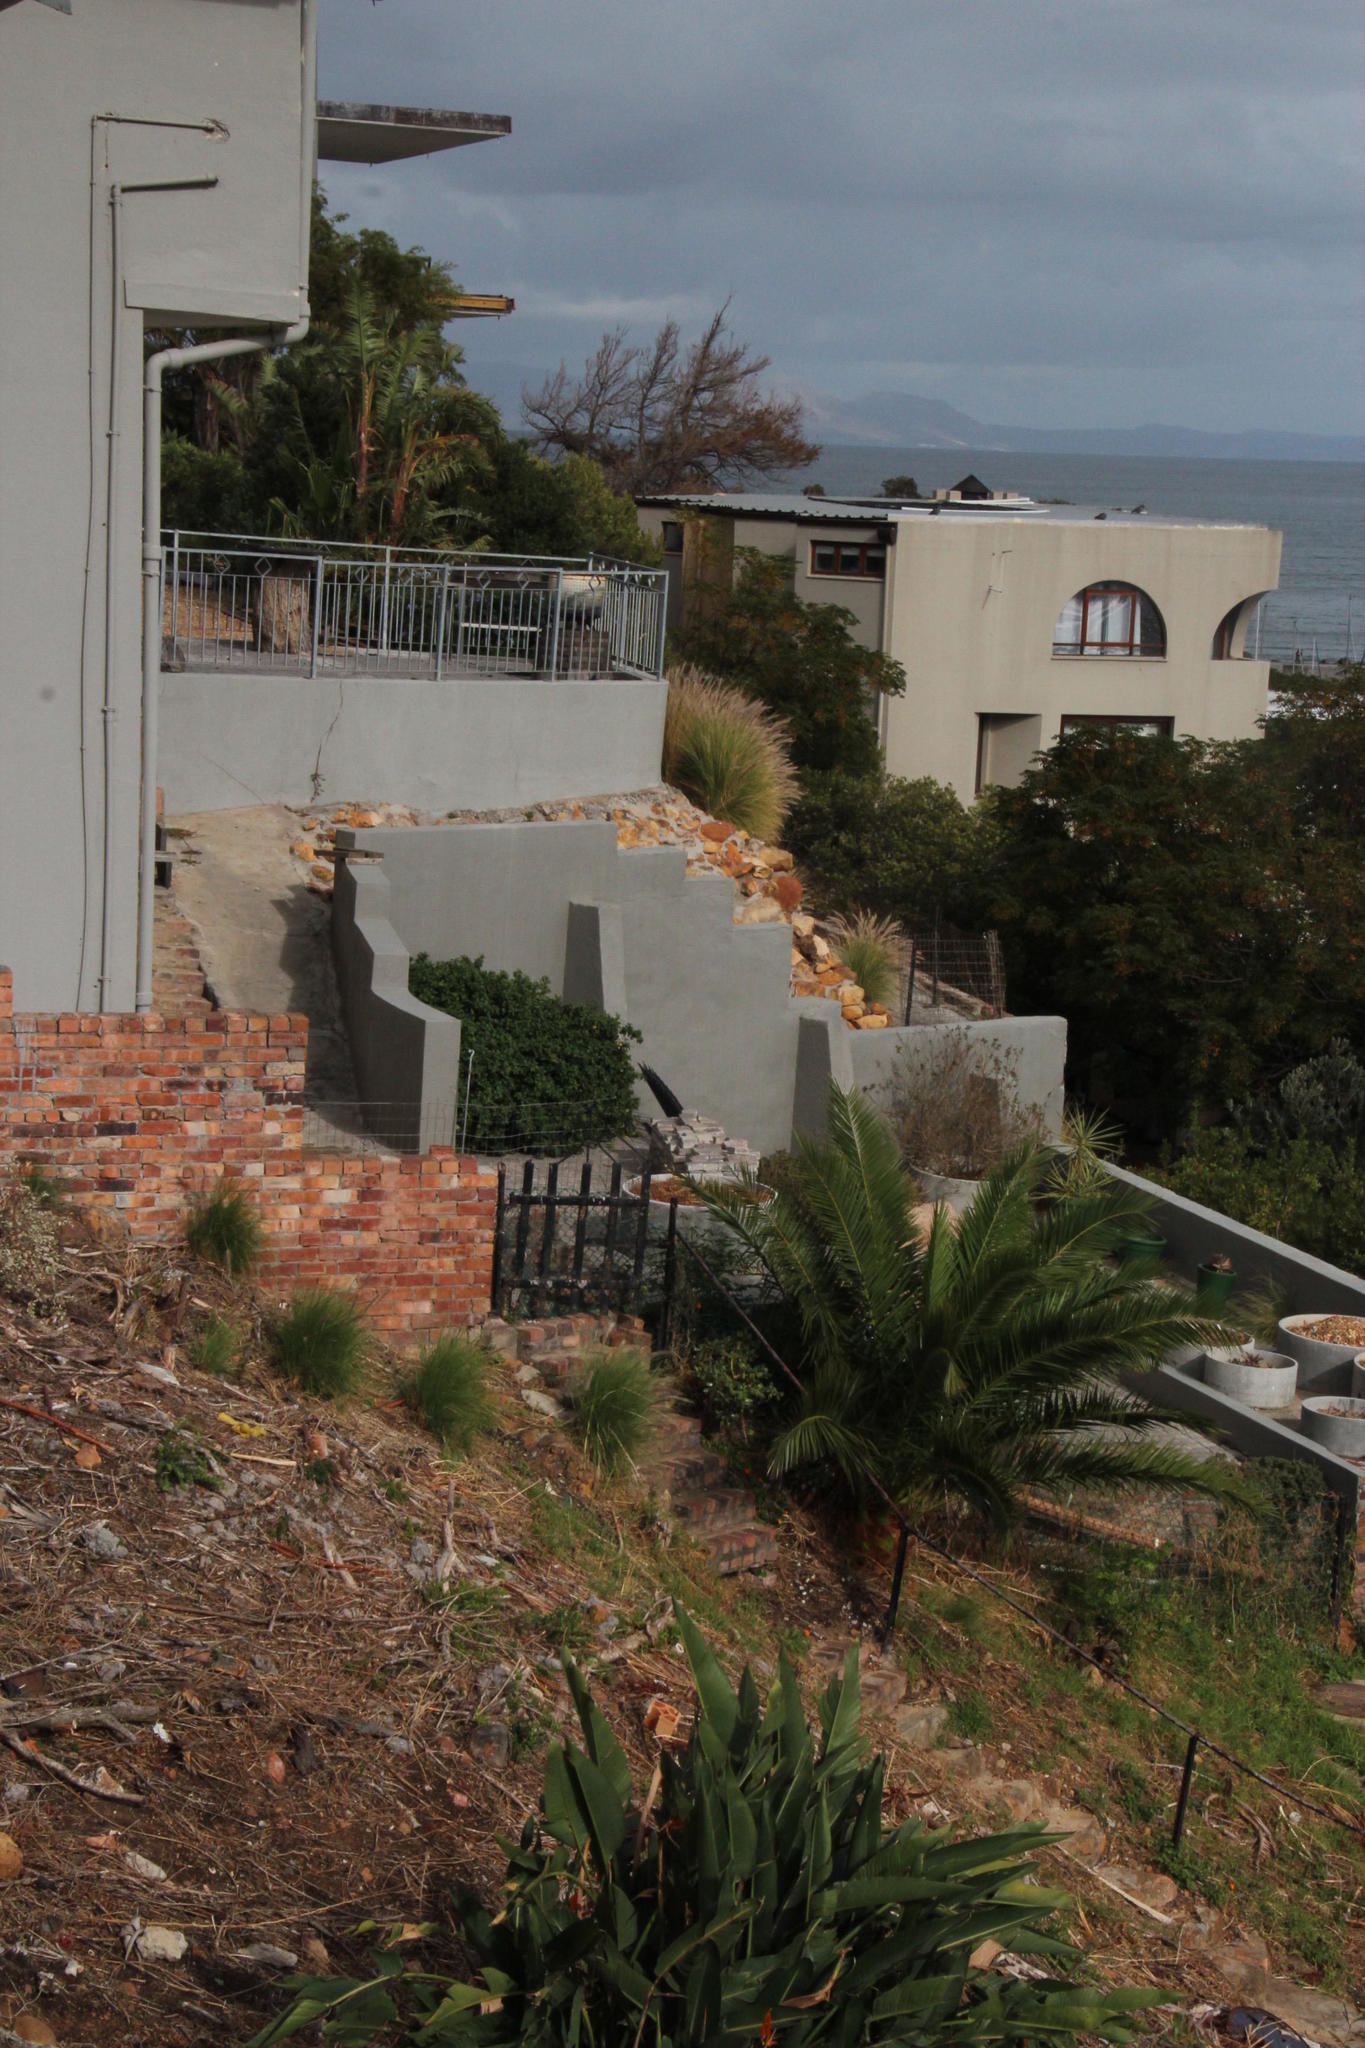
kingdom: Plantae
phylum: Tracheophyta
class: Liliopsida
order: Poales
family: Poaceae
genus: Cenchrus
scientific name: Cenchrus setaceus
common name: Crimson fountaingrass
